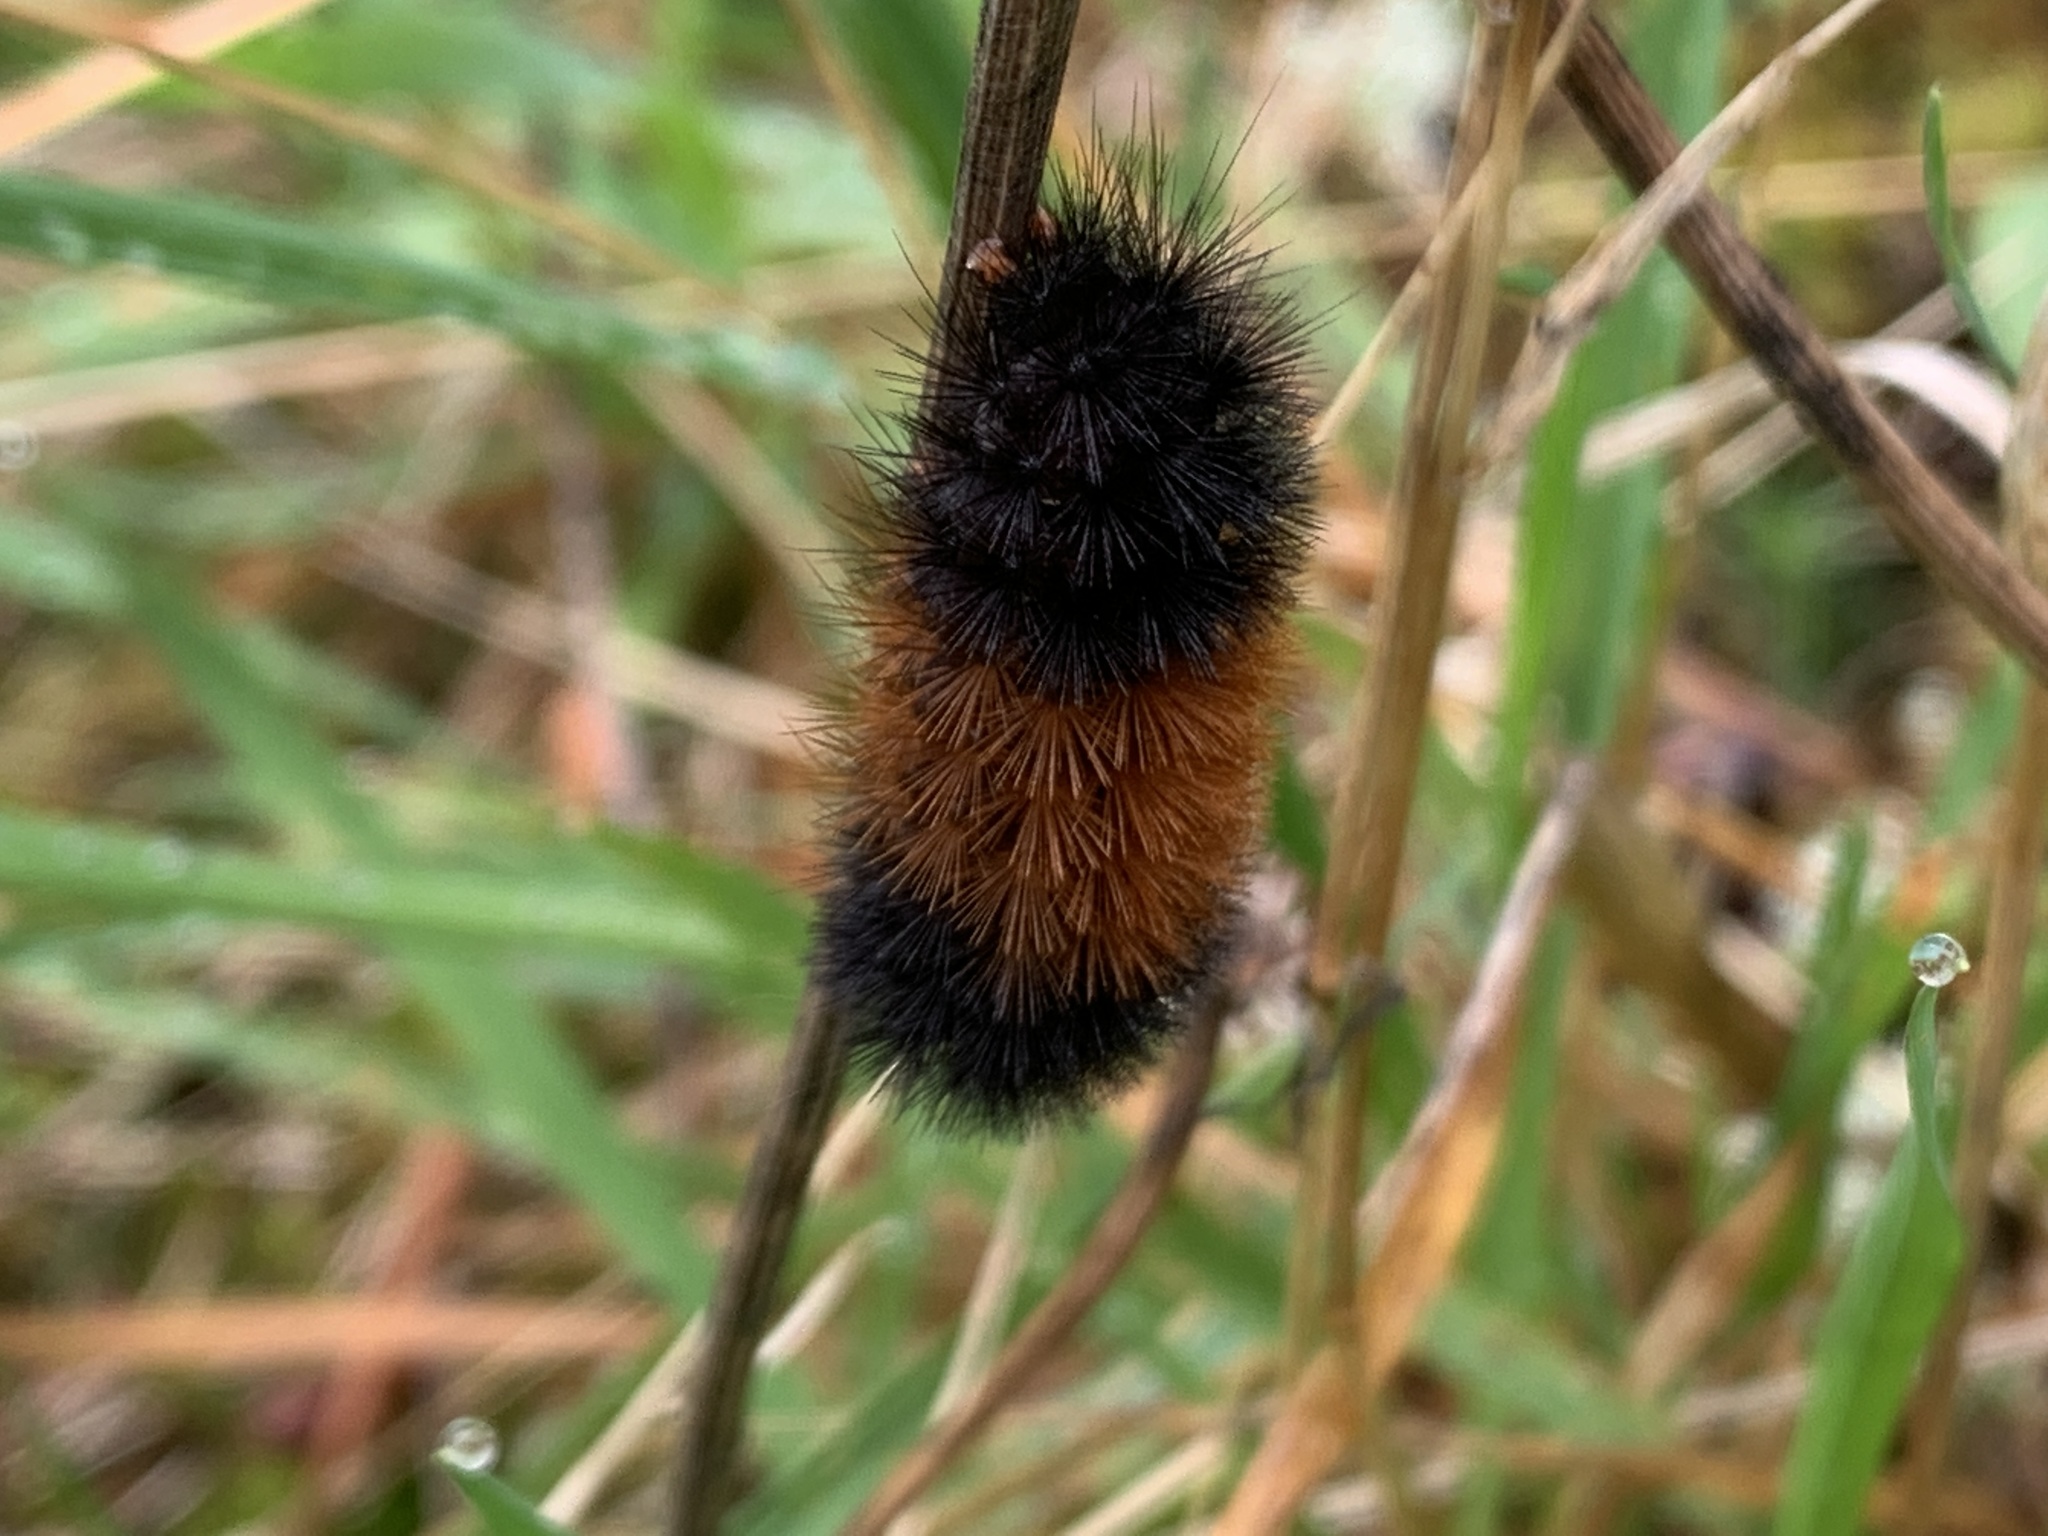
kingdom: Animalia
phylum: Arthropoda
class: Insecta
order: Lepidoptera
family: Erebidae
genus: Pyrrharctia
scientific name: Pyrrharctia isabella
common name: Isabella tiger moth
